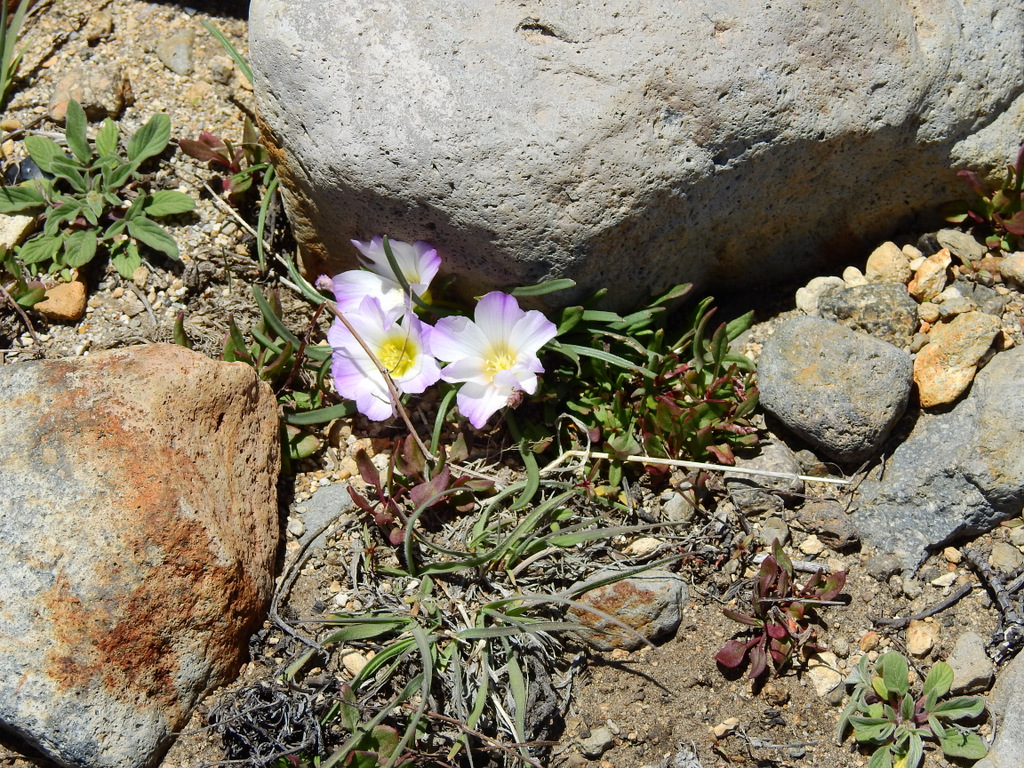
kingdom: Plantae
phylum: Tracheophyta
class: Magnoliopsida
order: Caryophyllales
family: Montiaceae
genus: Calandrinia
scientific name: Calandrinia affinis
